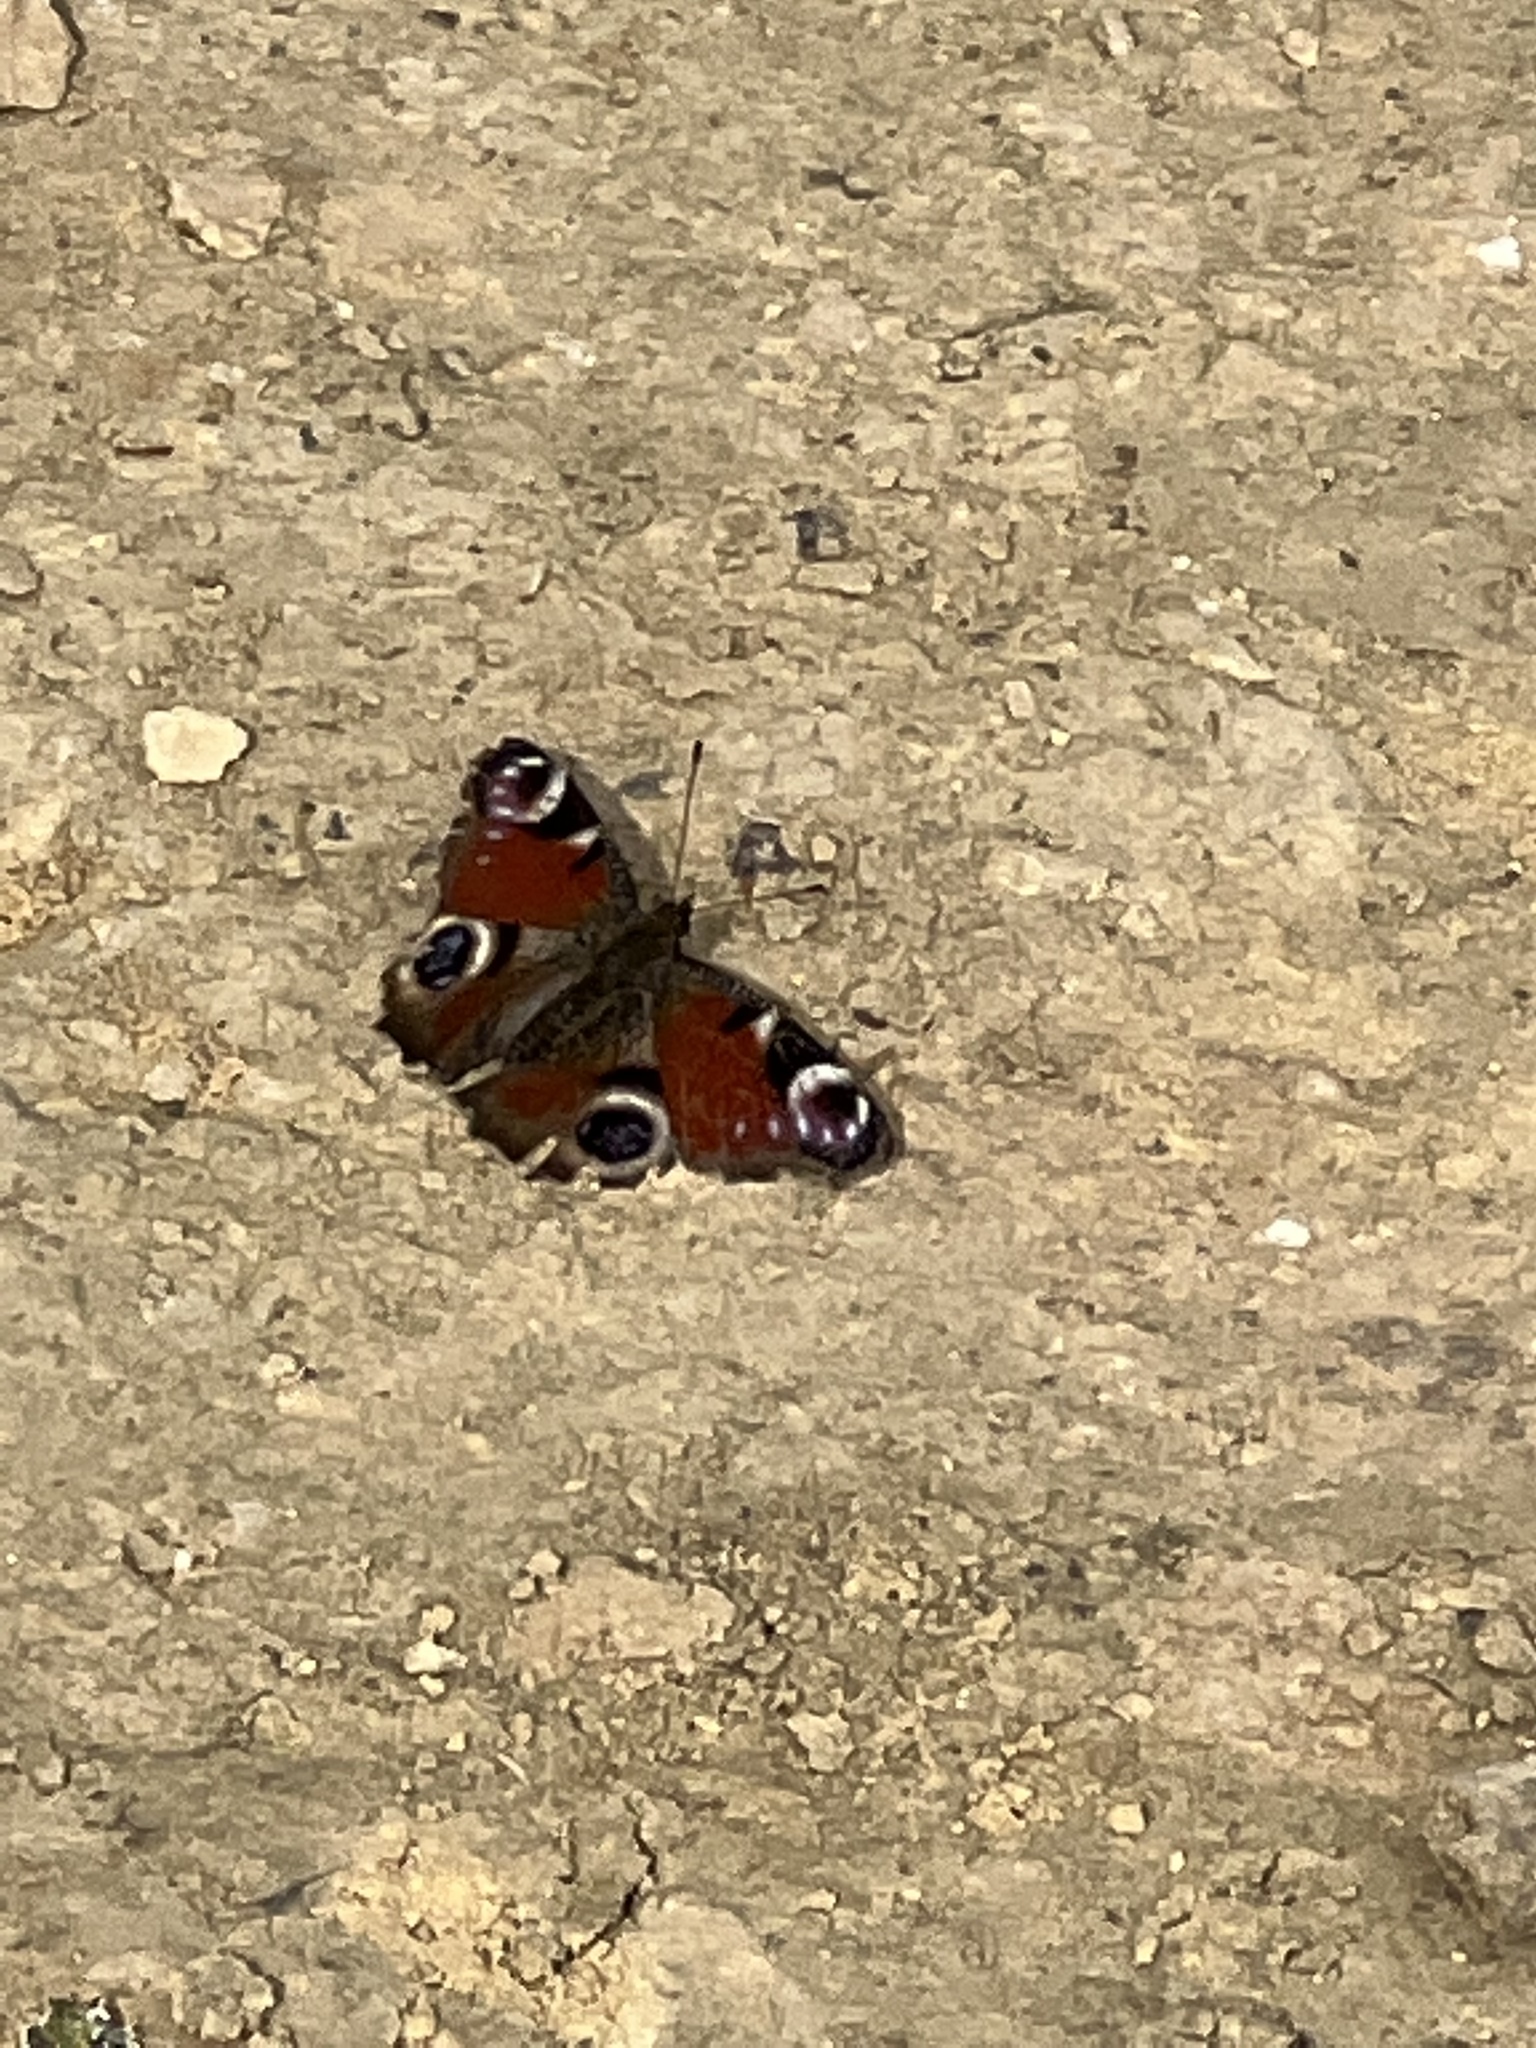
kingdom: Animalia
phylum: Arthropoda
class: Insecta
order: Lepidoptera
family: Nymphalidae
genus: Aglais
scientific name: Aglais io
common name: Peacock
